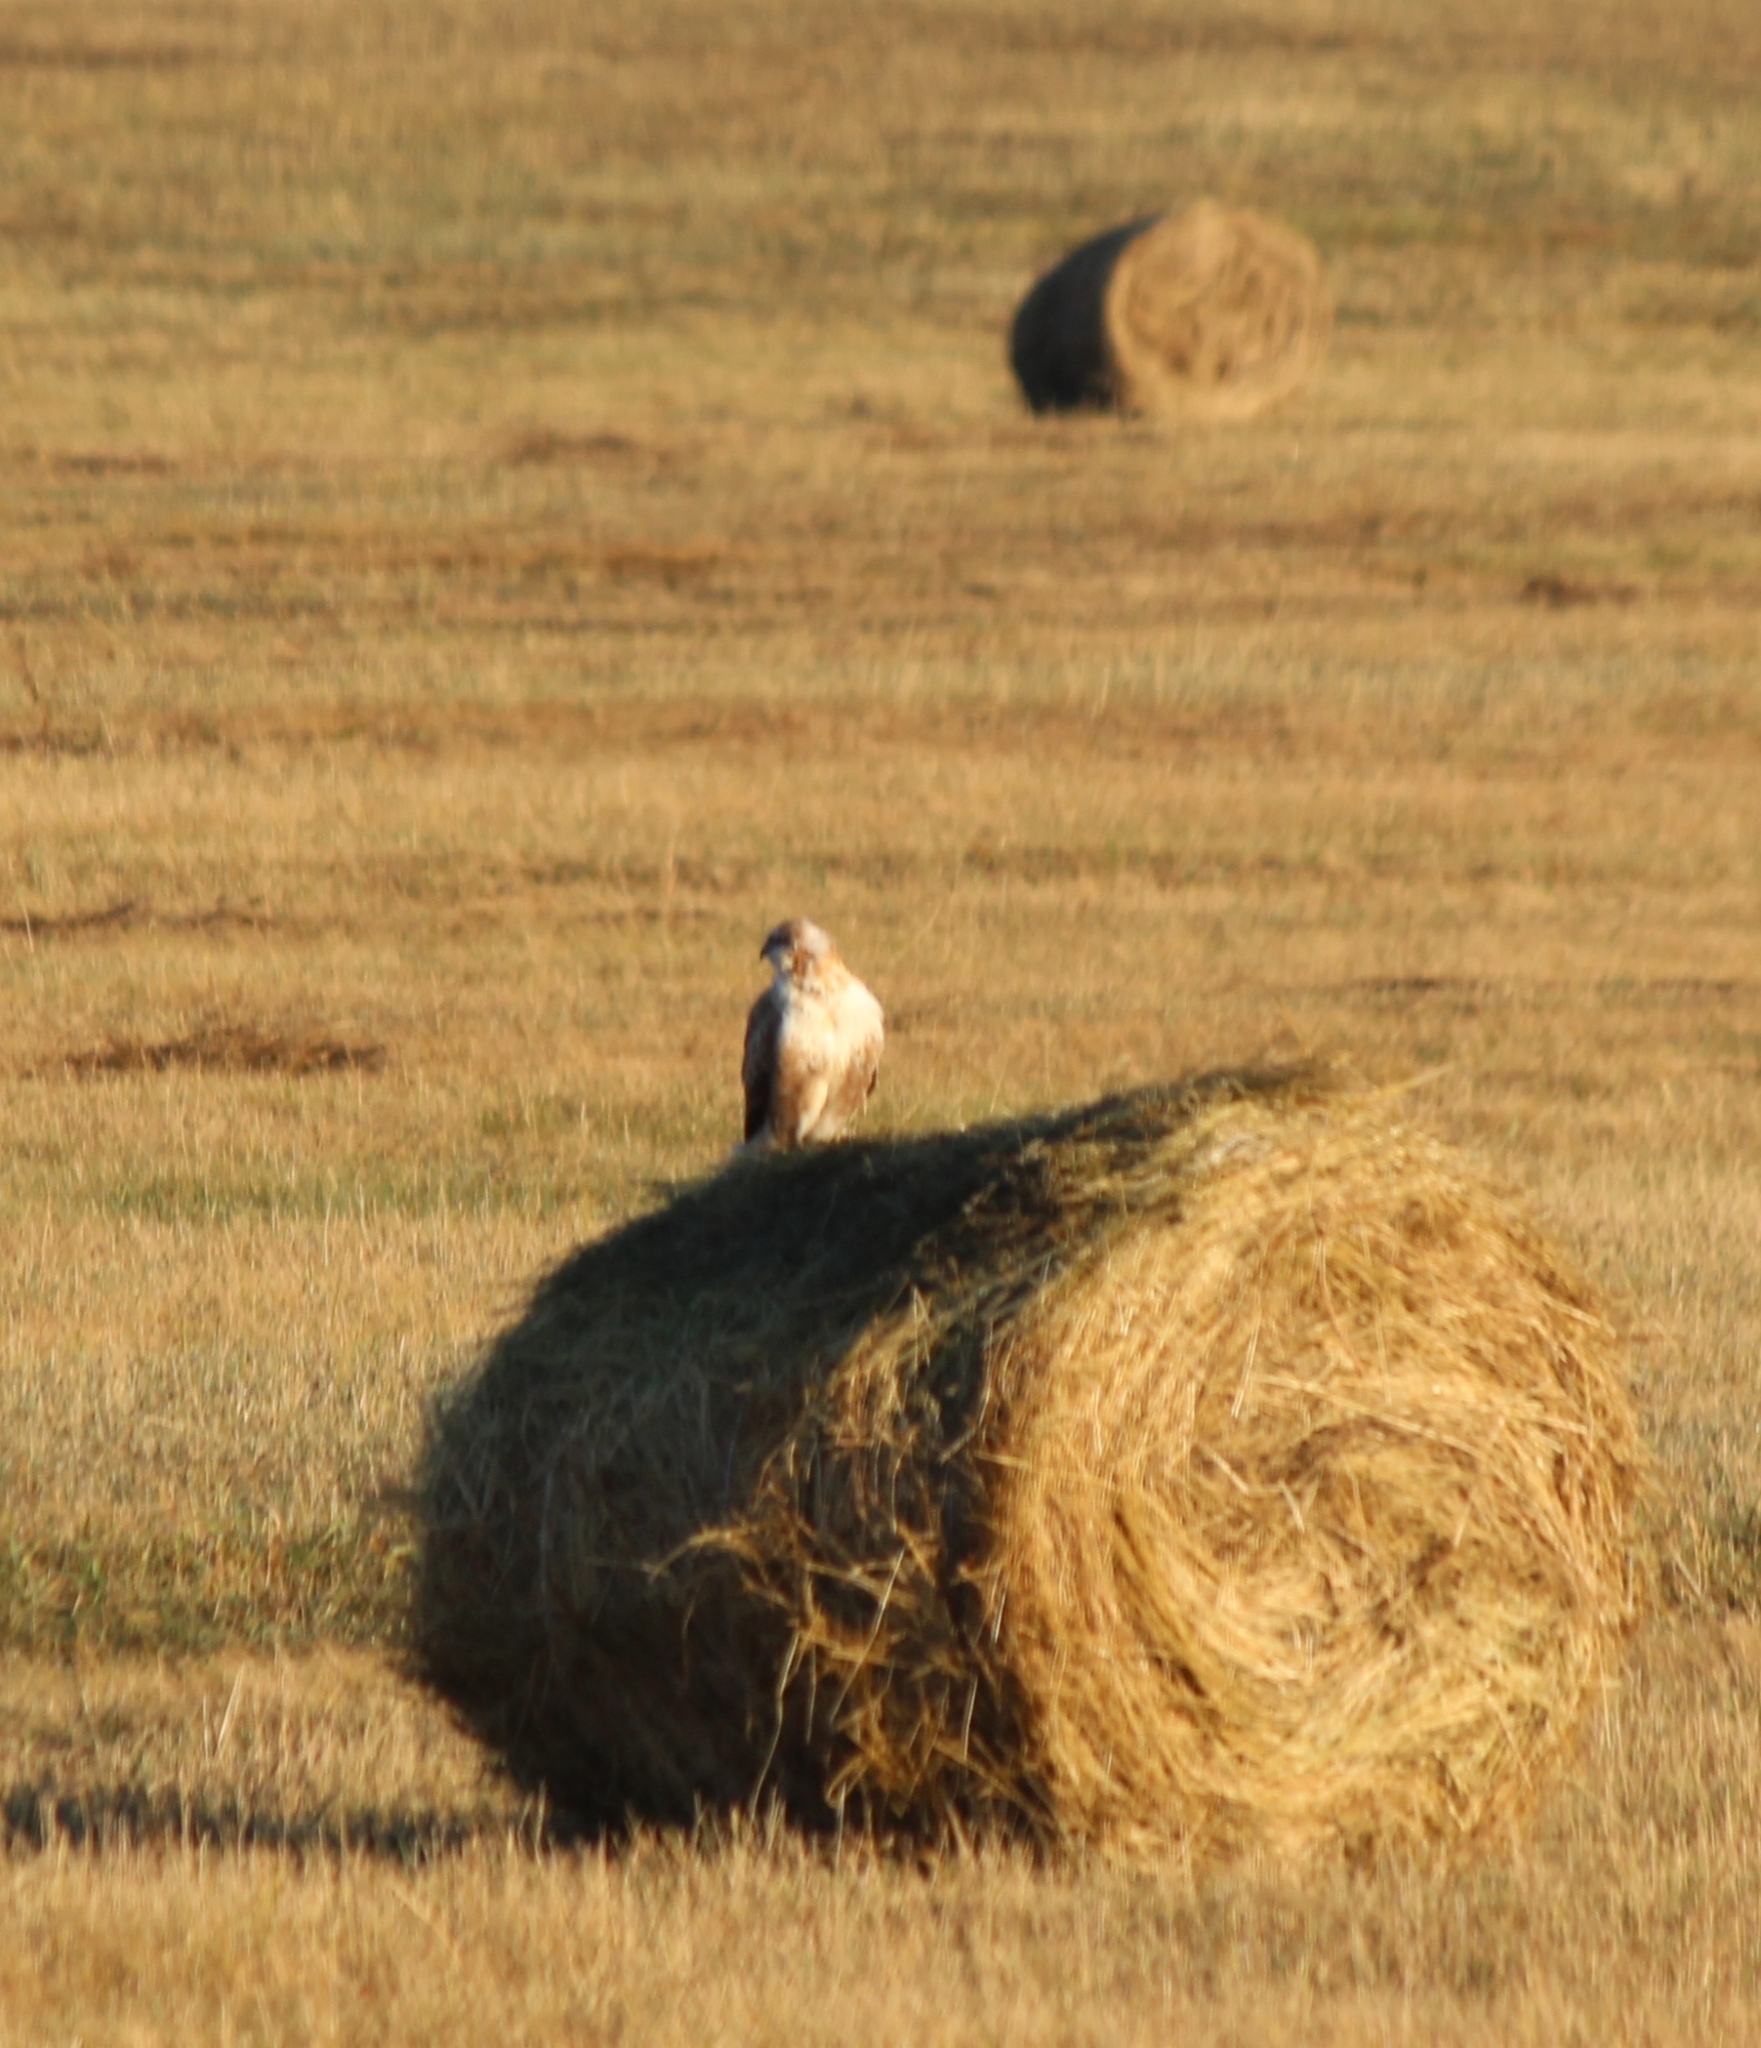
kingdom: Animalia
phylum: Chordata
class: Aves
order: Accipitriformes
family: Accipitridae
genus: Buteo
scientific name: Buteo hemilasius
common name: Upland buzzard
